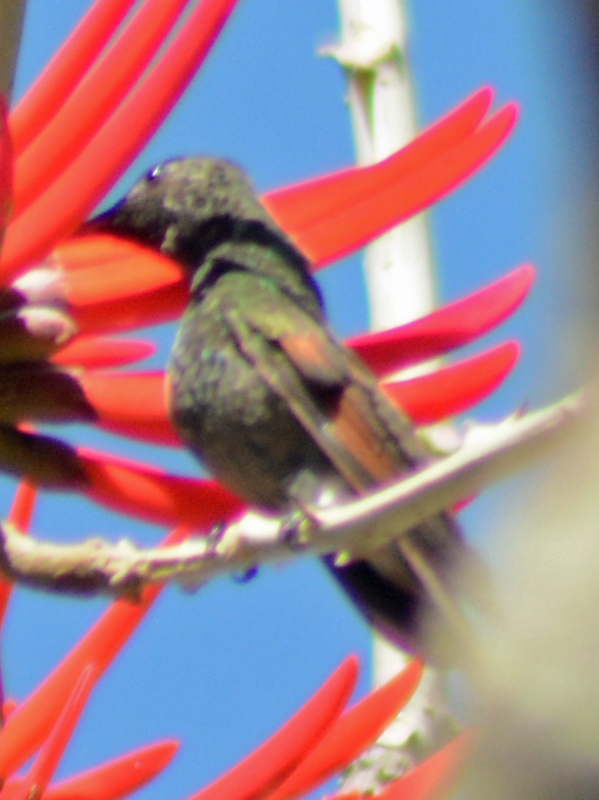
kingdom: Animalia
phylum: Chordata
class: Aves
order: Apodiformes
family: Trochilidae
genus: Saucerottia
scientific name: Saucerottia beryllina
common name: Berylline hummingbird
